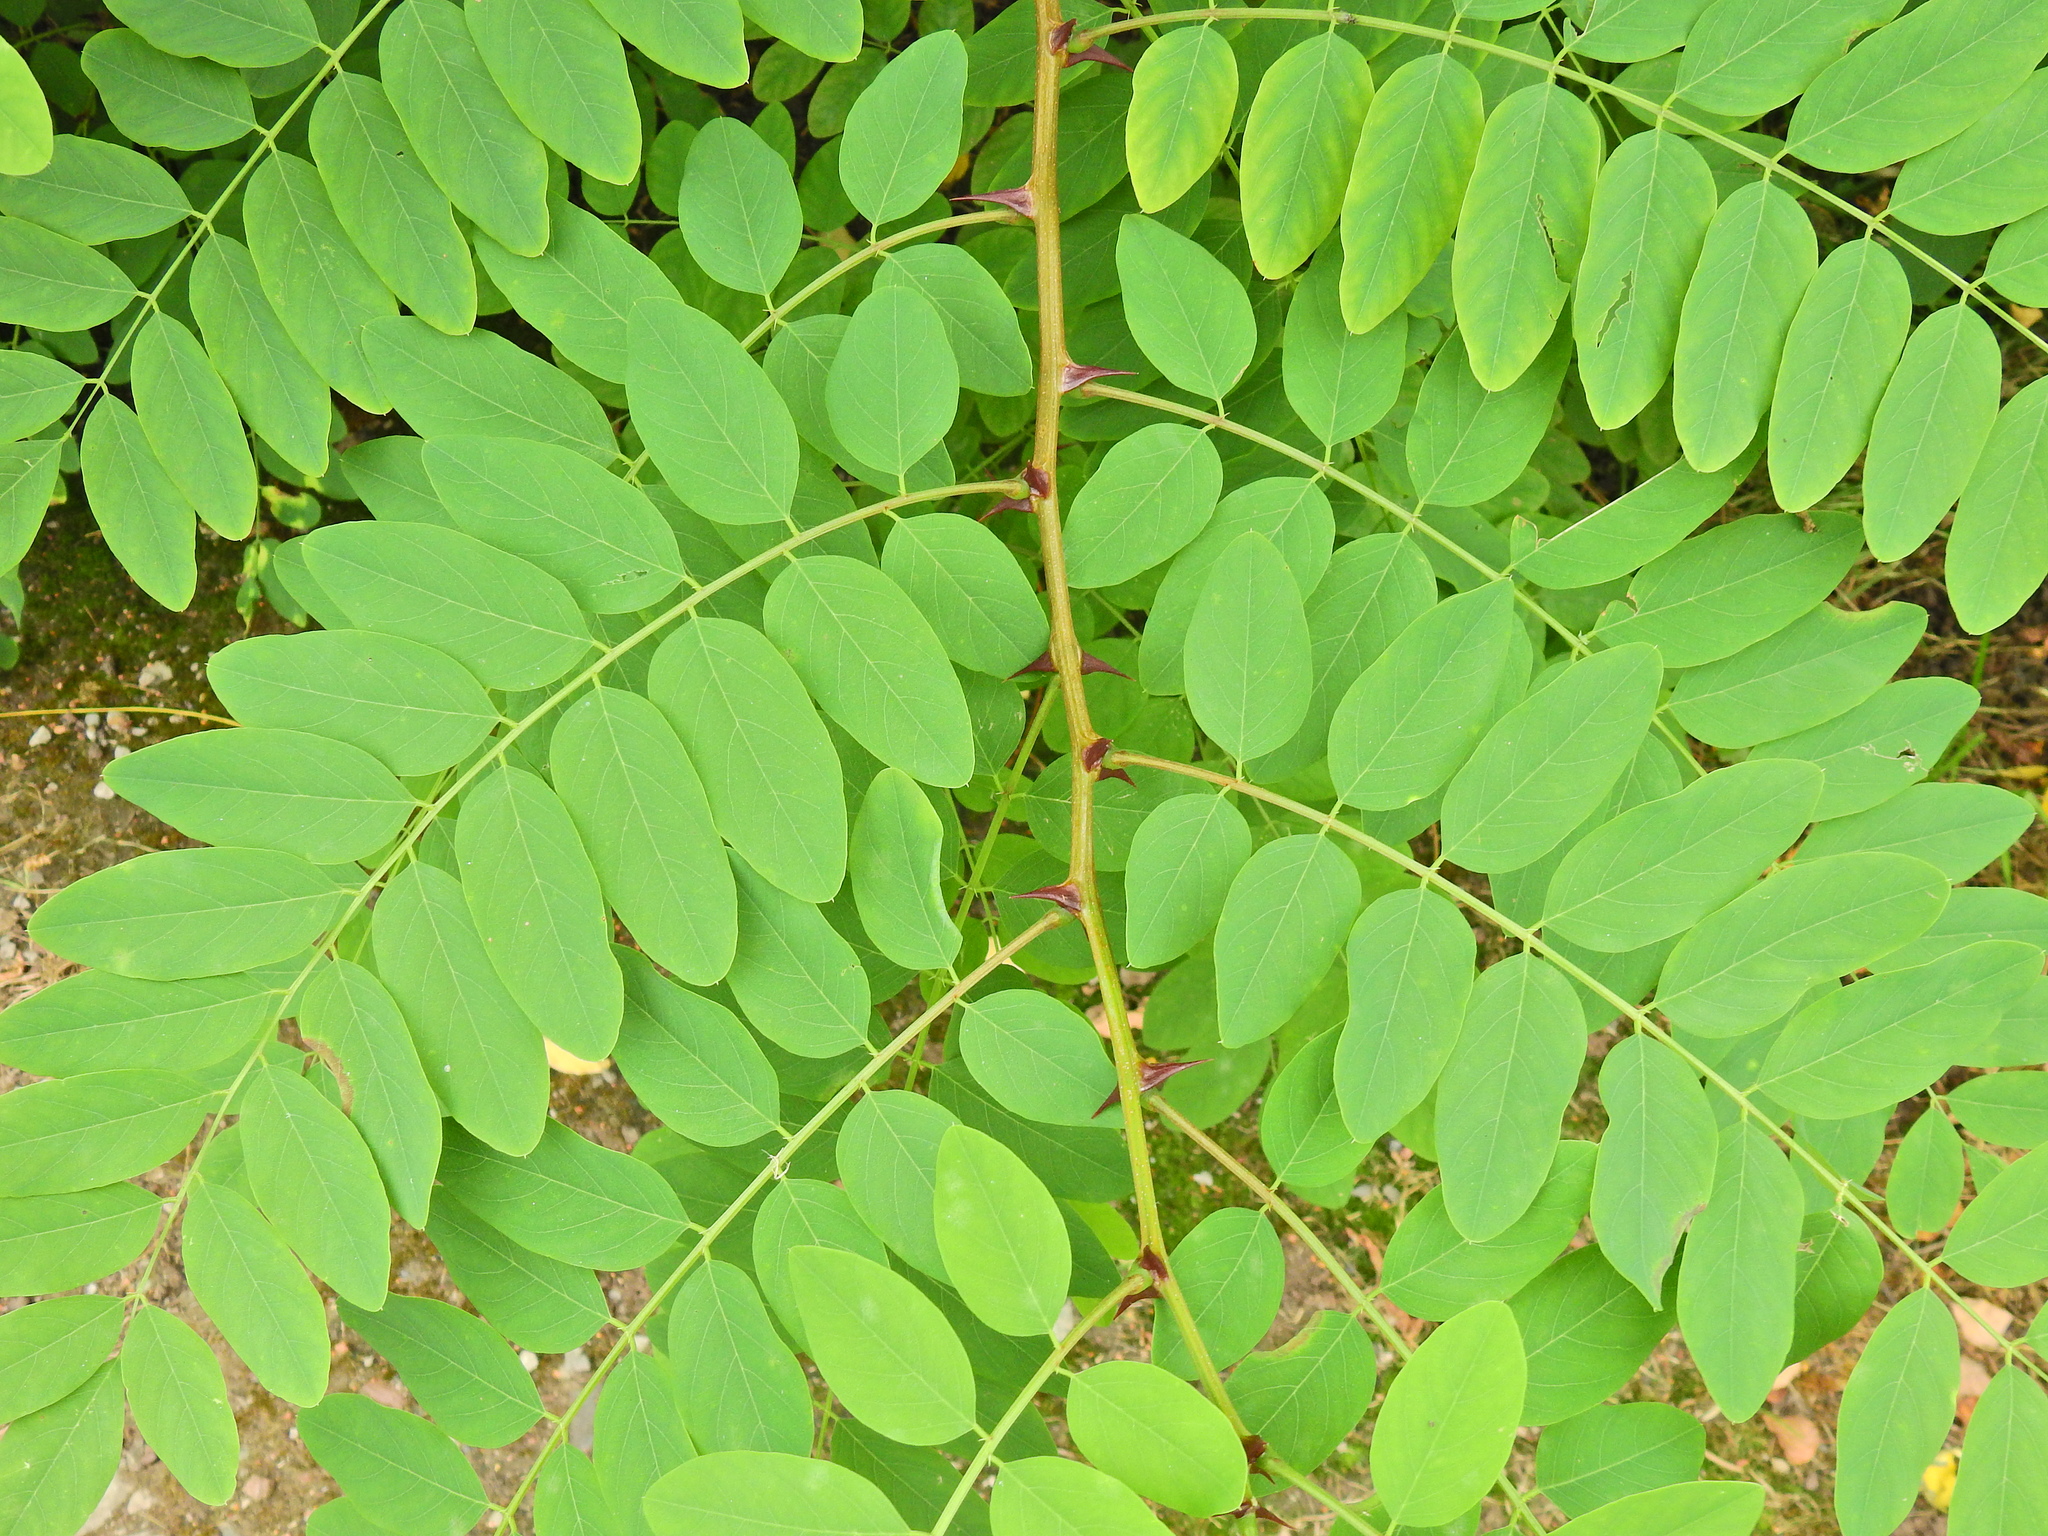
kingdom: Plantae
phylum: Tracheophyta
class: Magnoliopsida
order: Fabales
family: Fabaceae
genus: Robinia
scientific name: Robinia pseudoacacia
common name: Black locust
